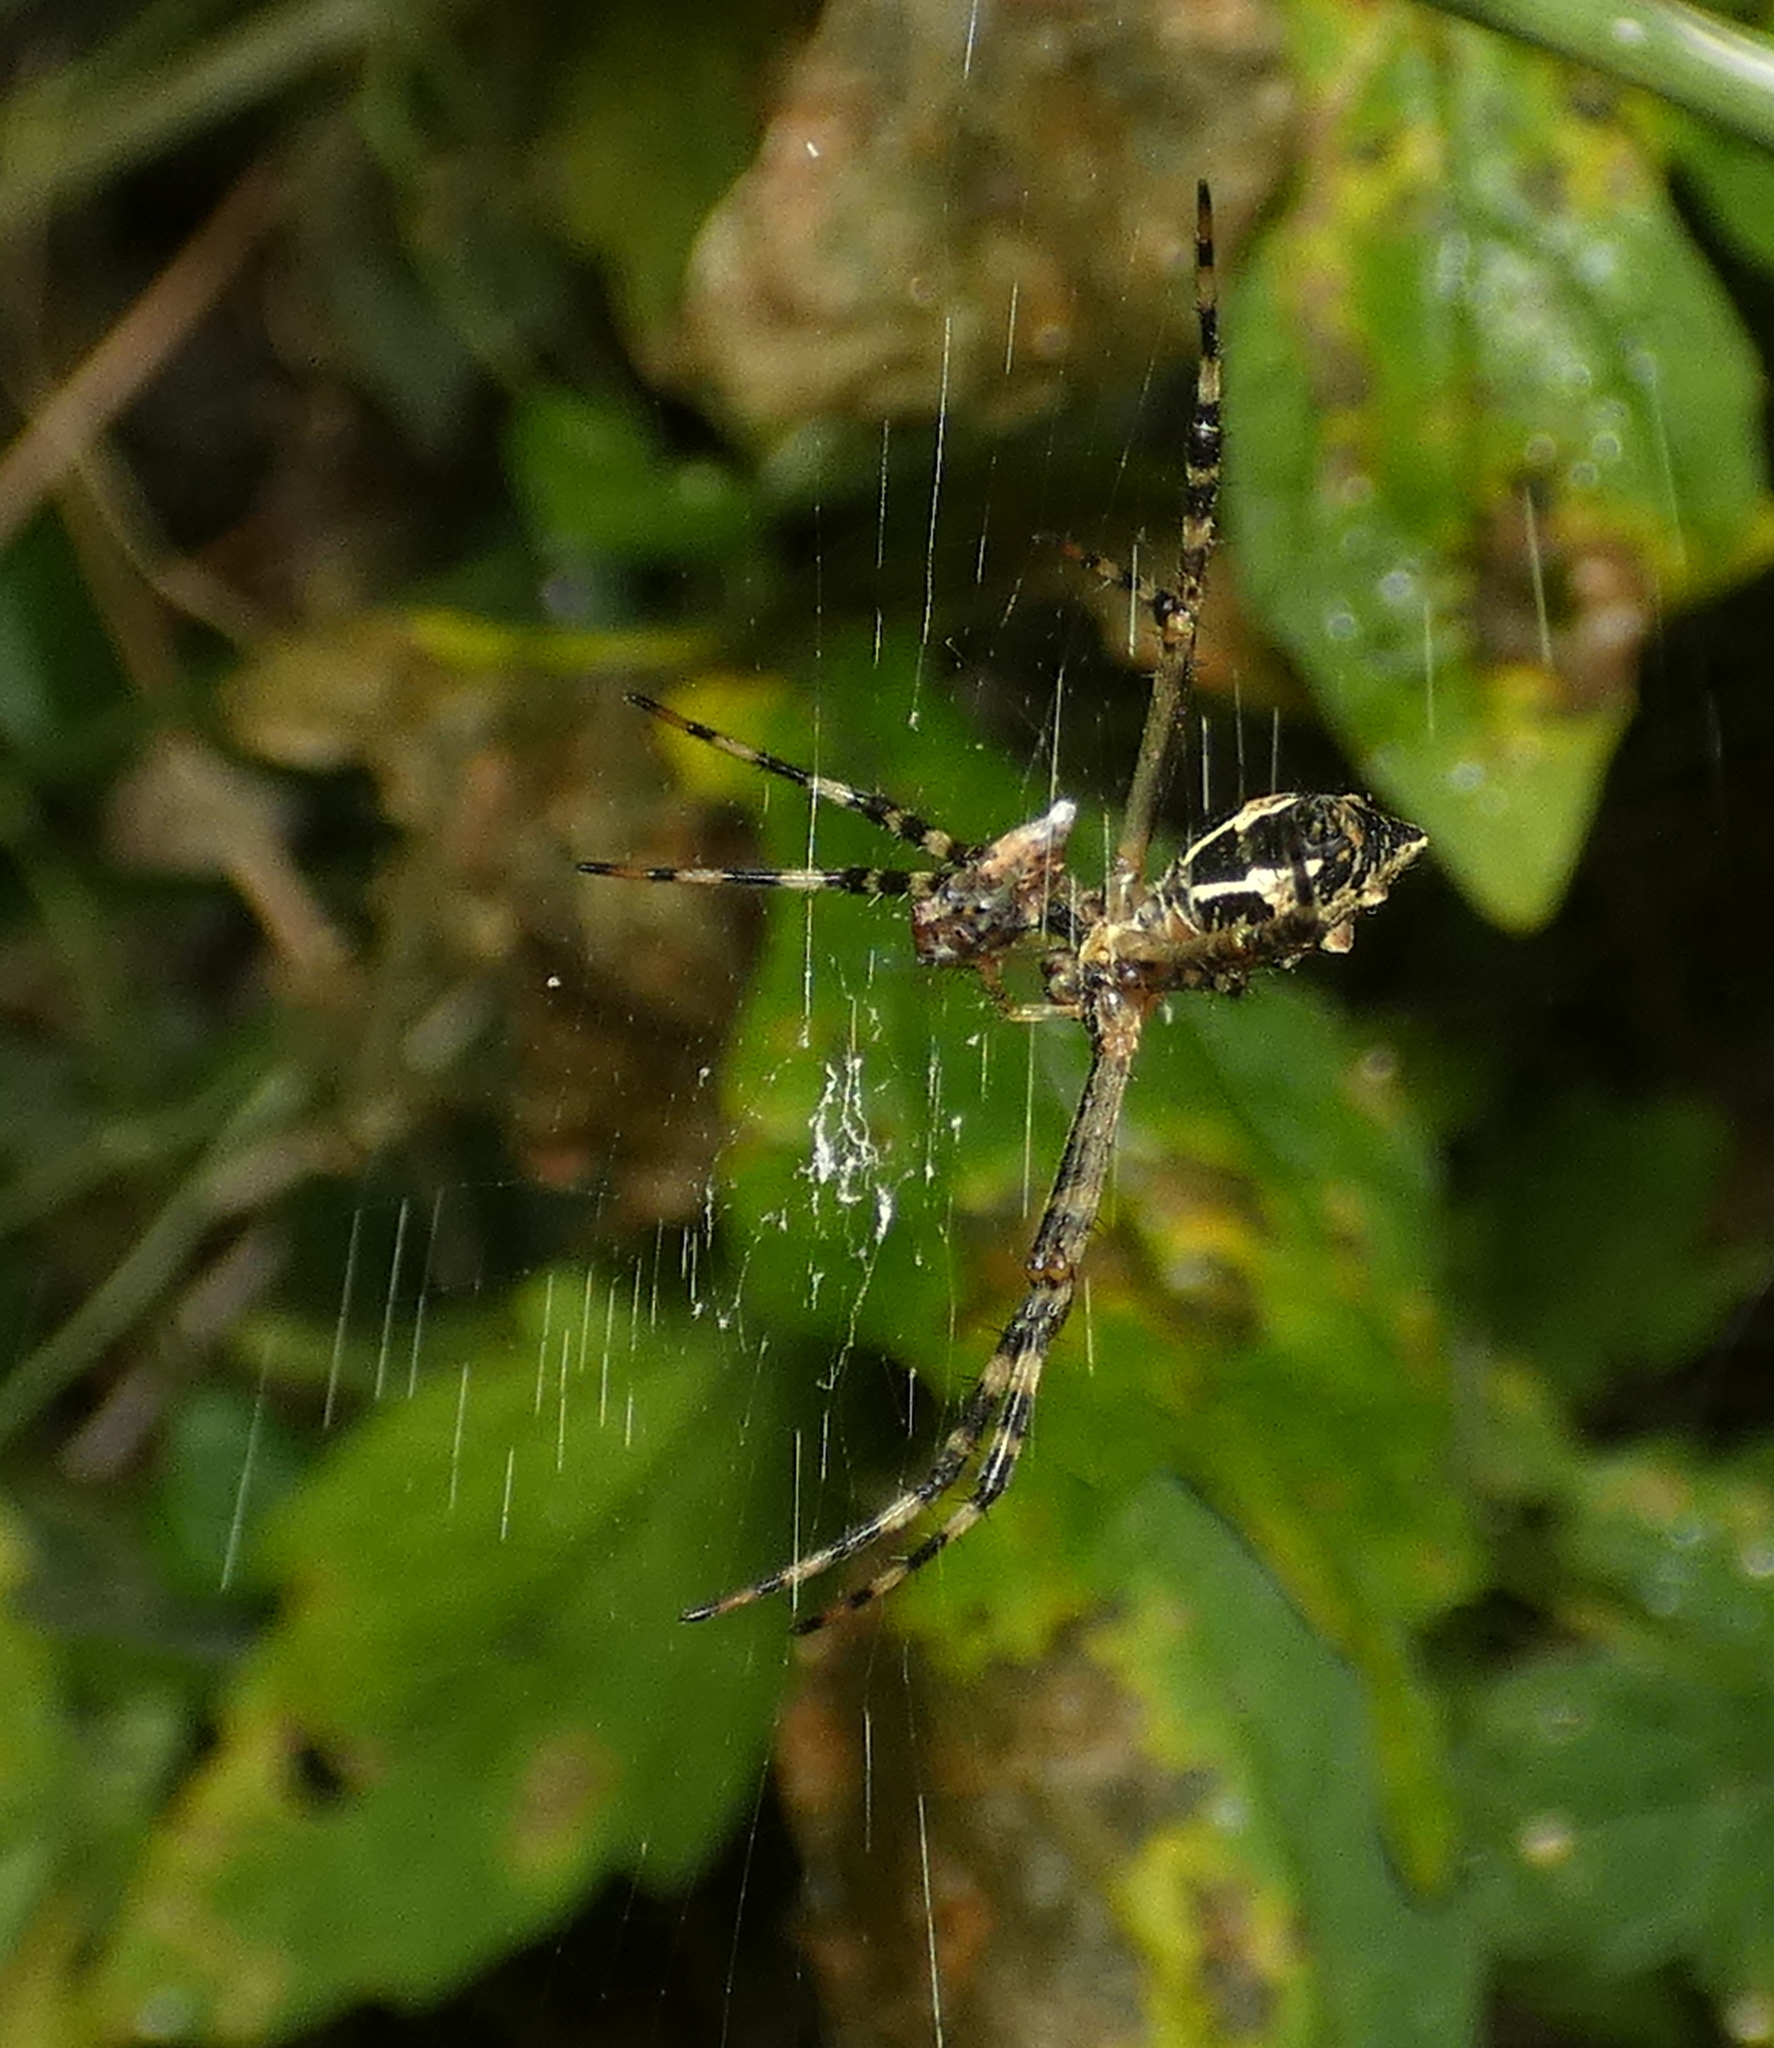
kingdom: Animalia
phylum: Arthropoda
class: Arachnida
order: Araneae
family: Araneidae
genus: Argiope
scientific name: Argiope argentata
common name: Orb weavers
